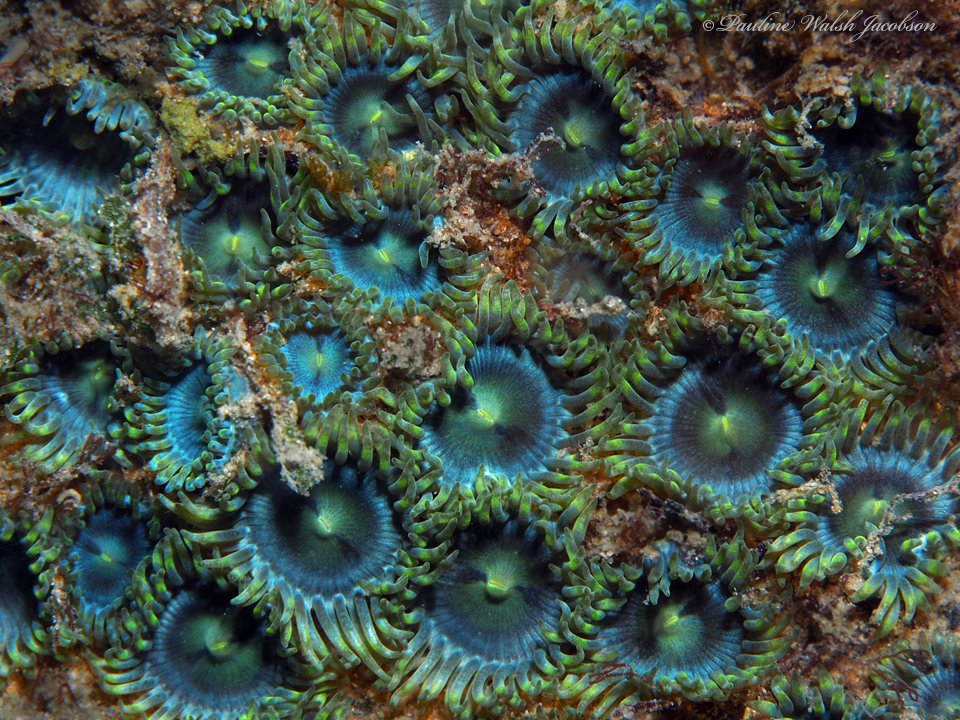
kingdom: Animalia
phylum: Cnidaria
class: Anthozoa
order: Zoantharia
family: Zoanthidae
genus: Zoanthus
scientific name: Zoanthus pulchellus
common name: Mat zoanthid
